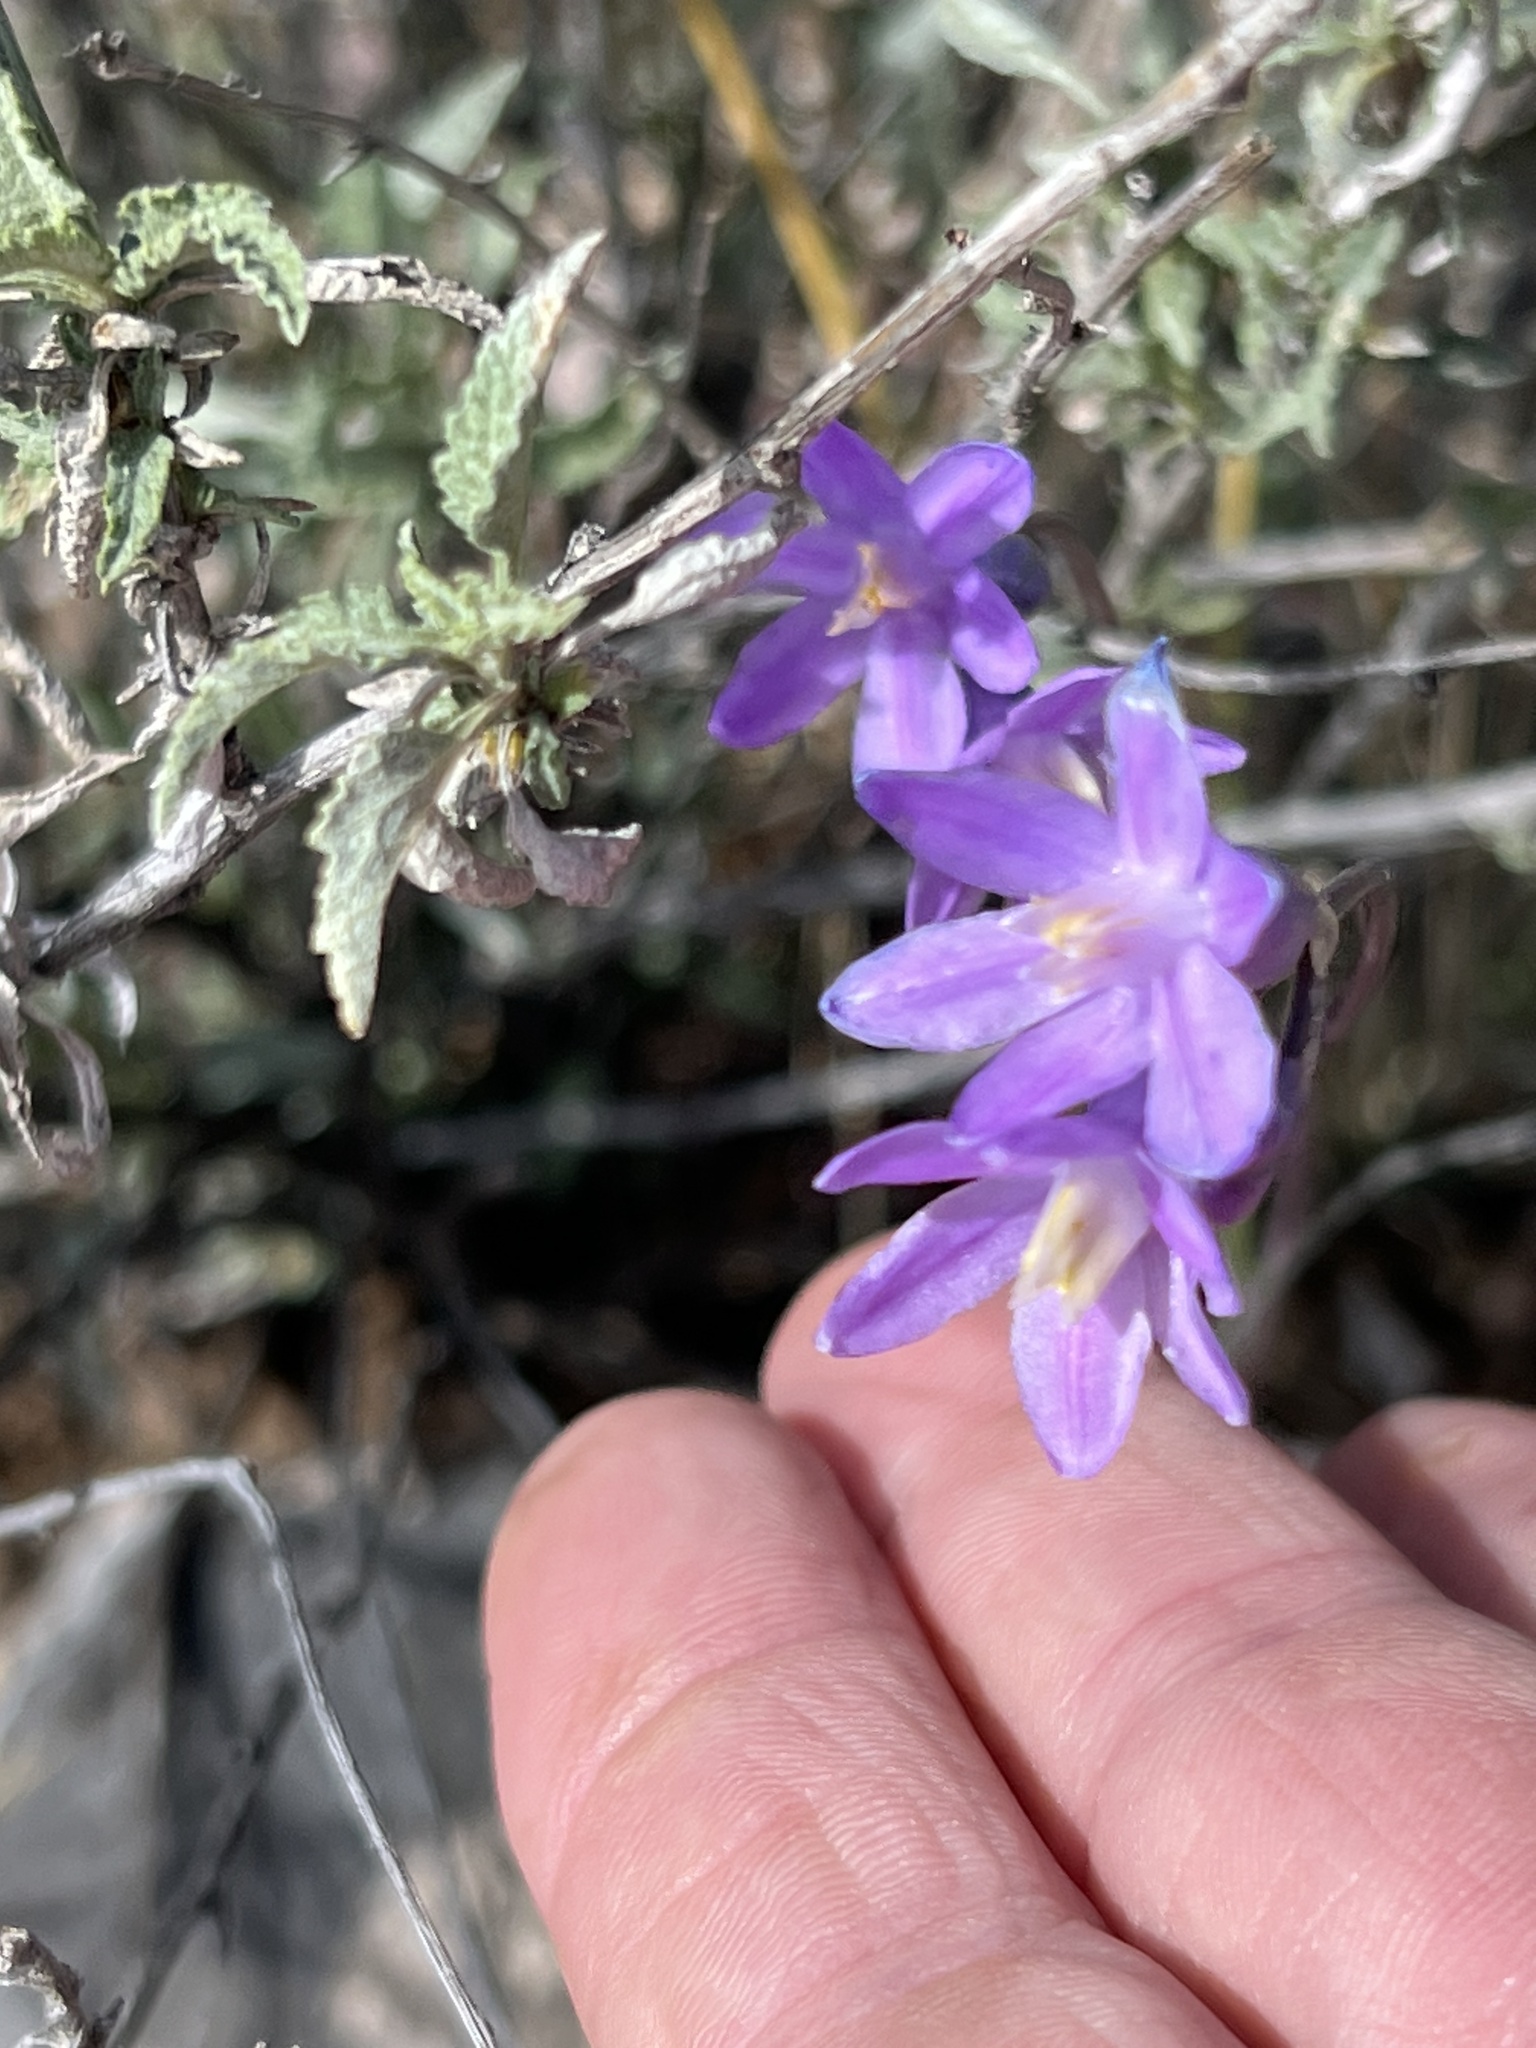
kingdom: Plantae
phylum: Tracheophyta
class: Liliopsida
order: Asparagales
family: Asparagaceae
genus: Dipterostemon
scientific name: Dipterostemon capitatus
